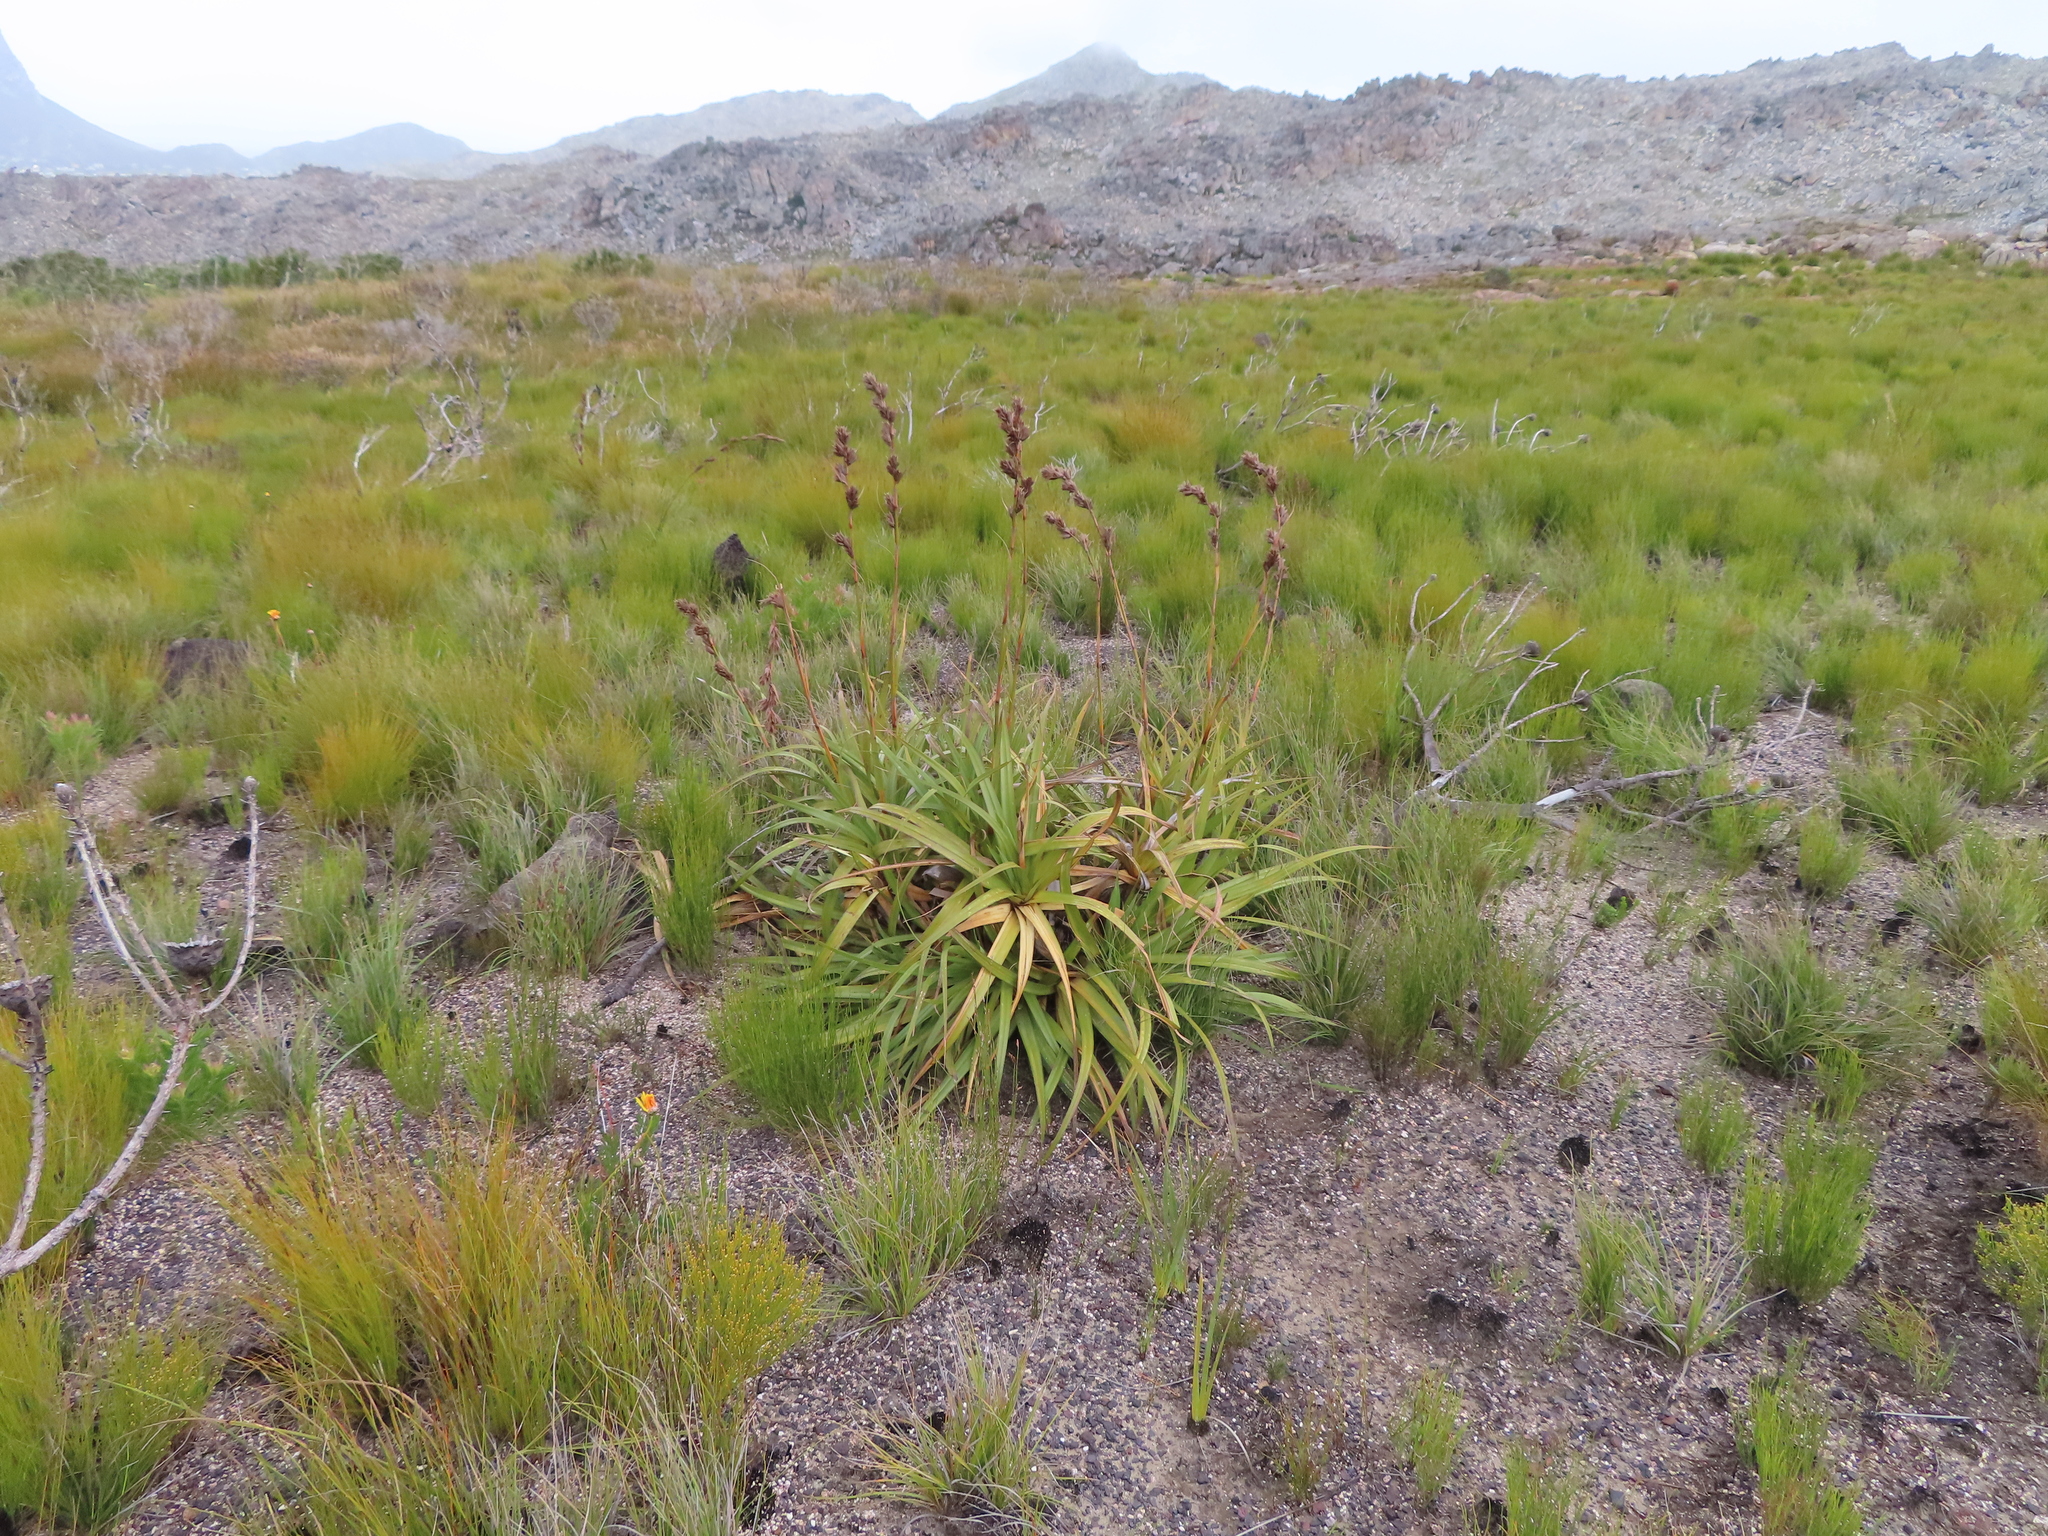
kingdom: Plantae
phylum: Tracheophyta
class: Liliopsida
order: Poales
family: Cyperaceae
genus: Tetraria
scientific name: Tetraria thermalis
